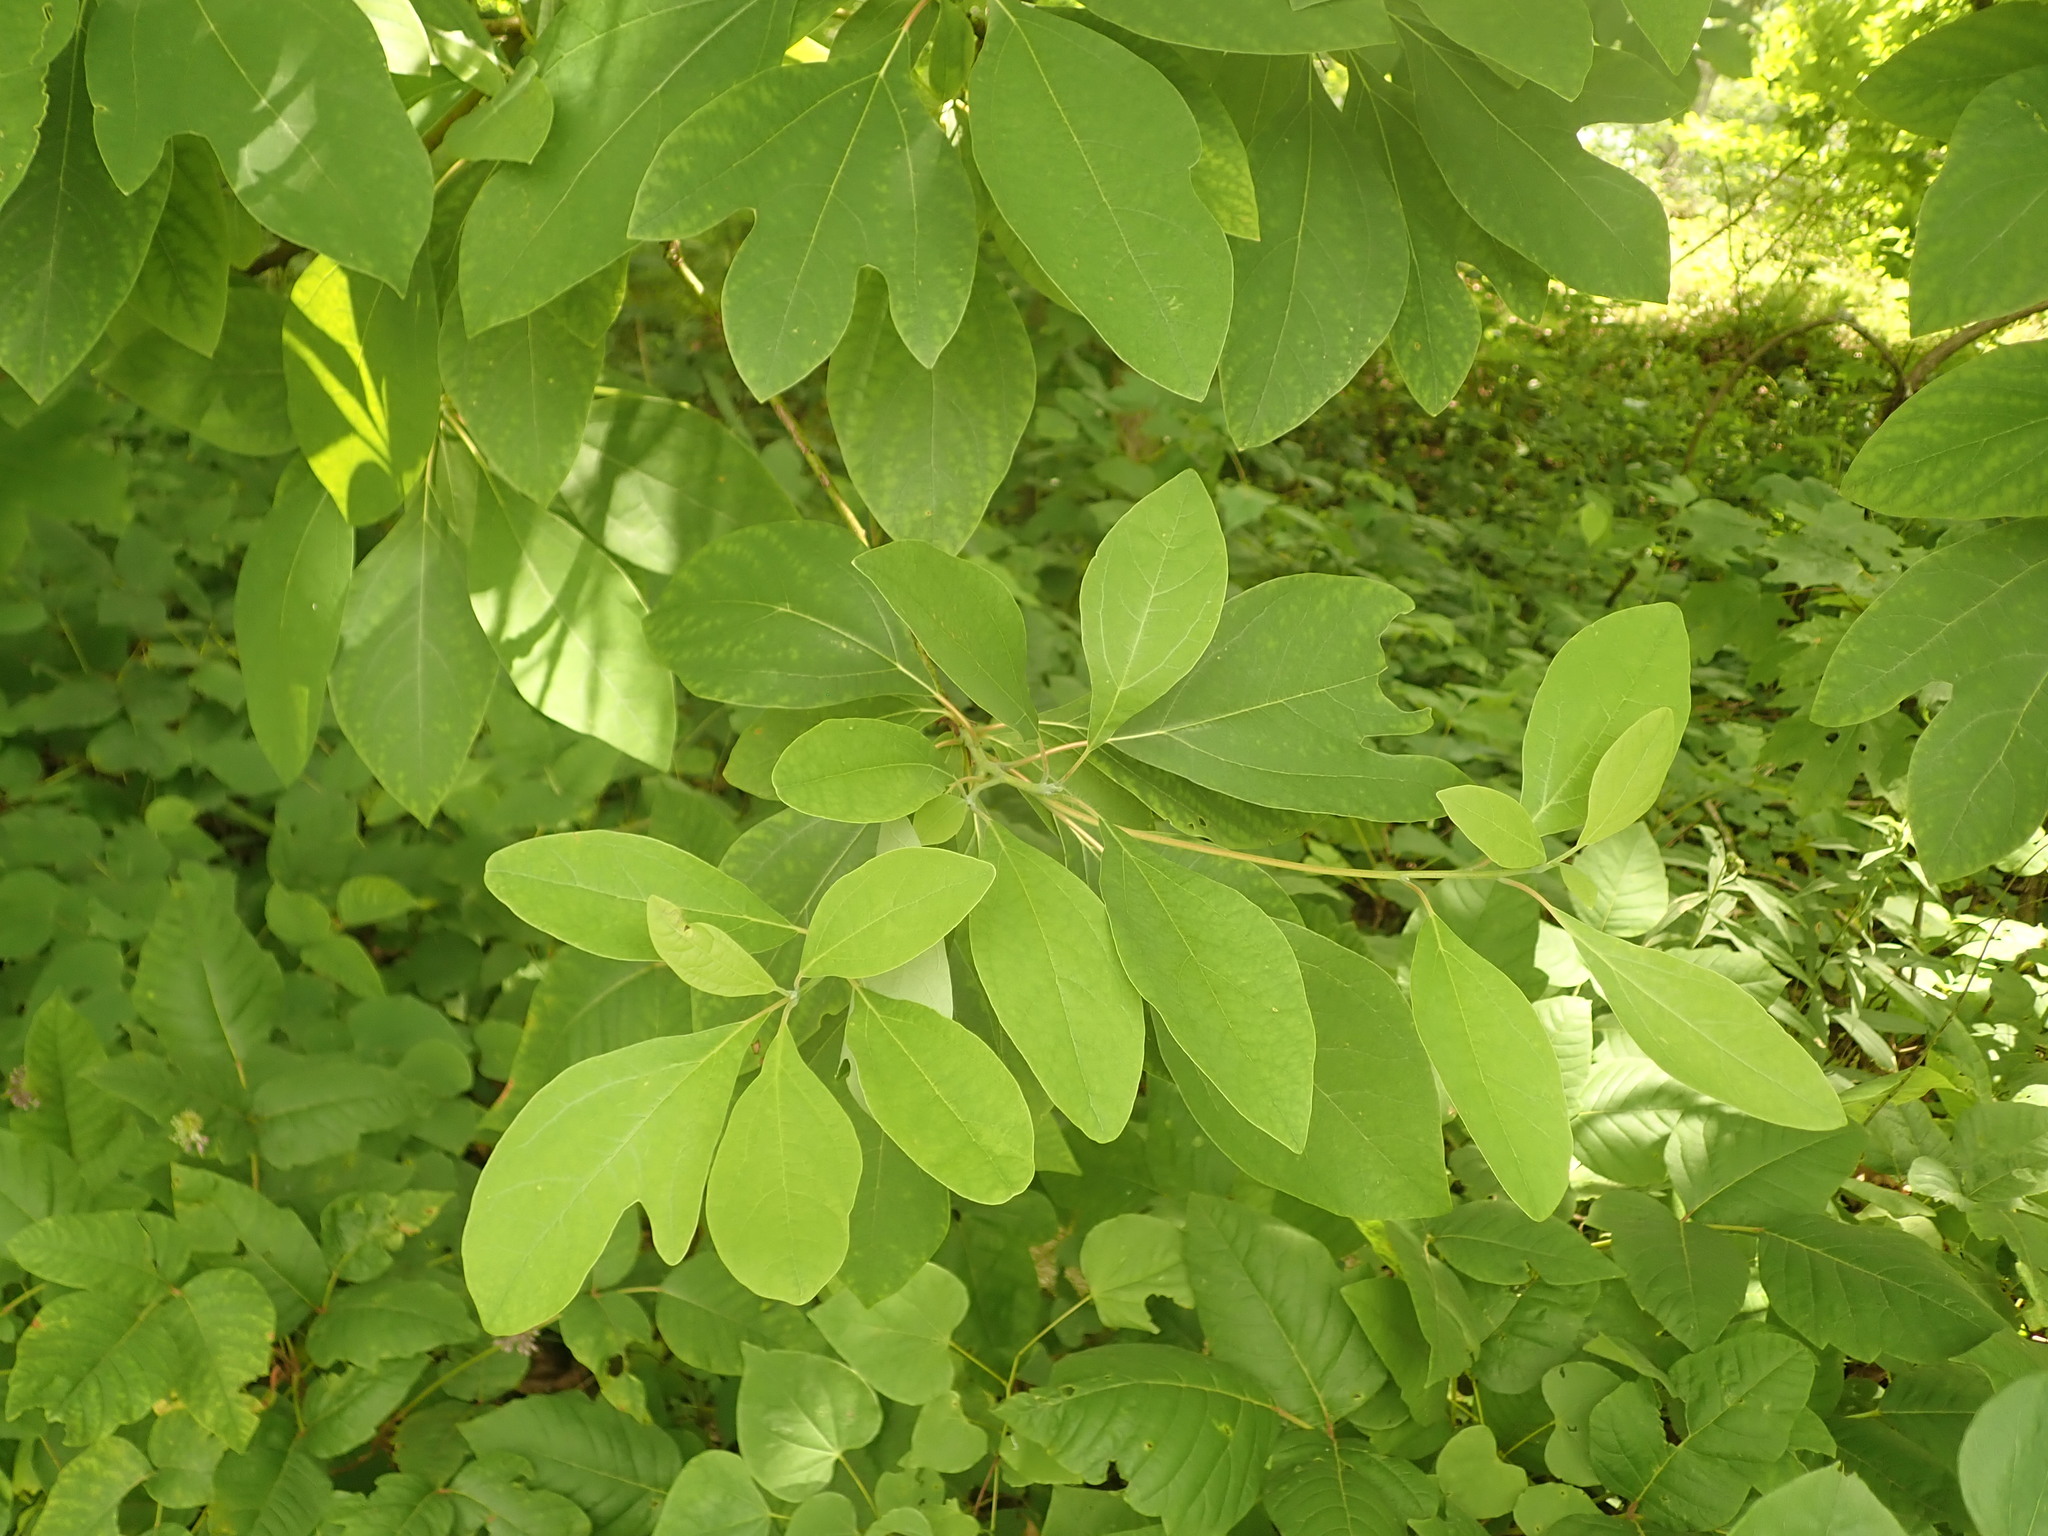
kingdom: Plantae
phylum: Tracheophyta
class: Magnoliopsida
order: Laurales
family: Lauraceae
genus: Sassafras
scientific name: Sassafras albidum
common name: Sassafras
